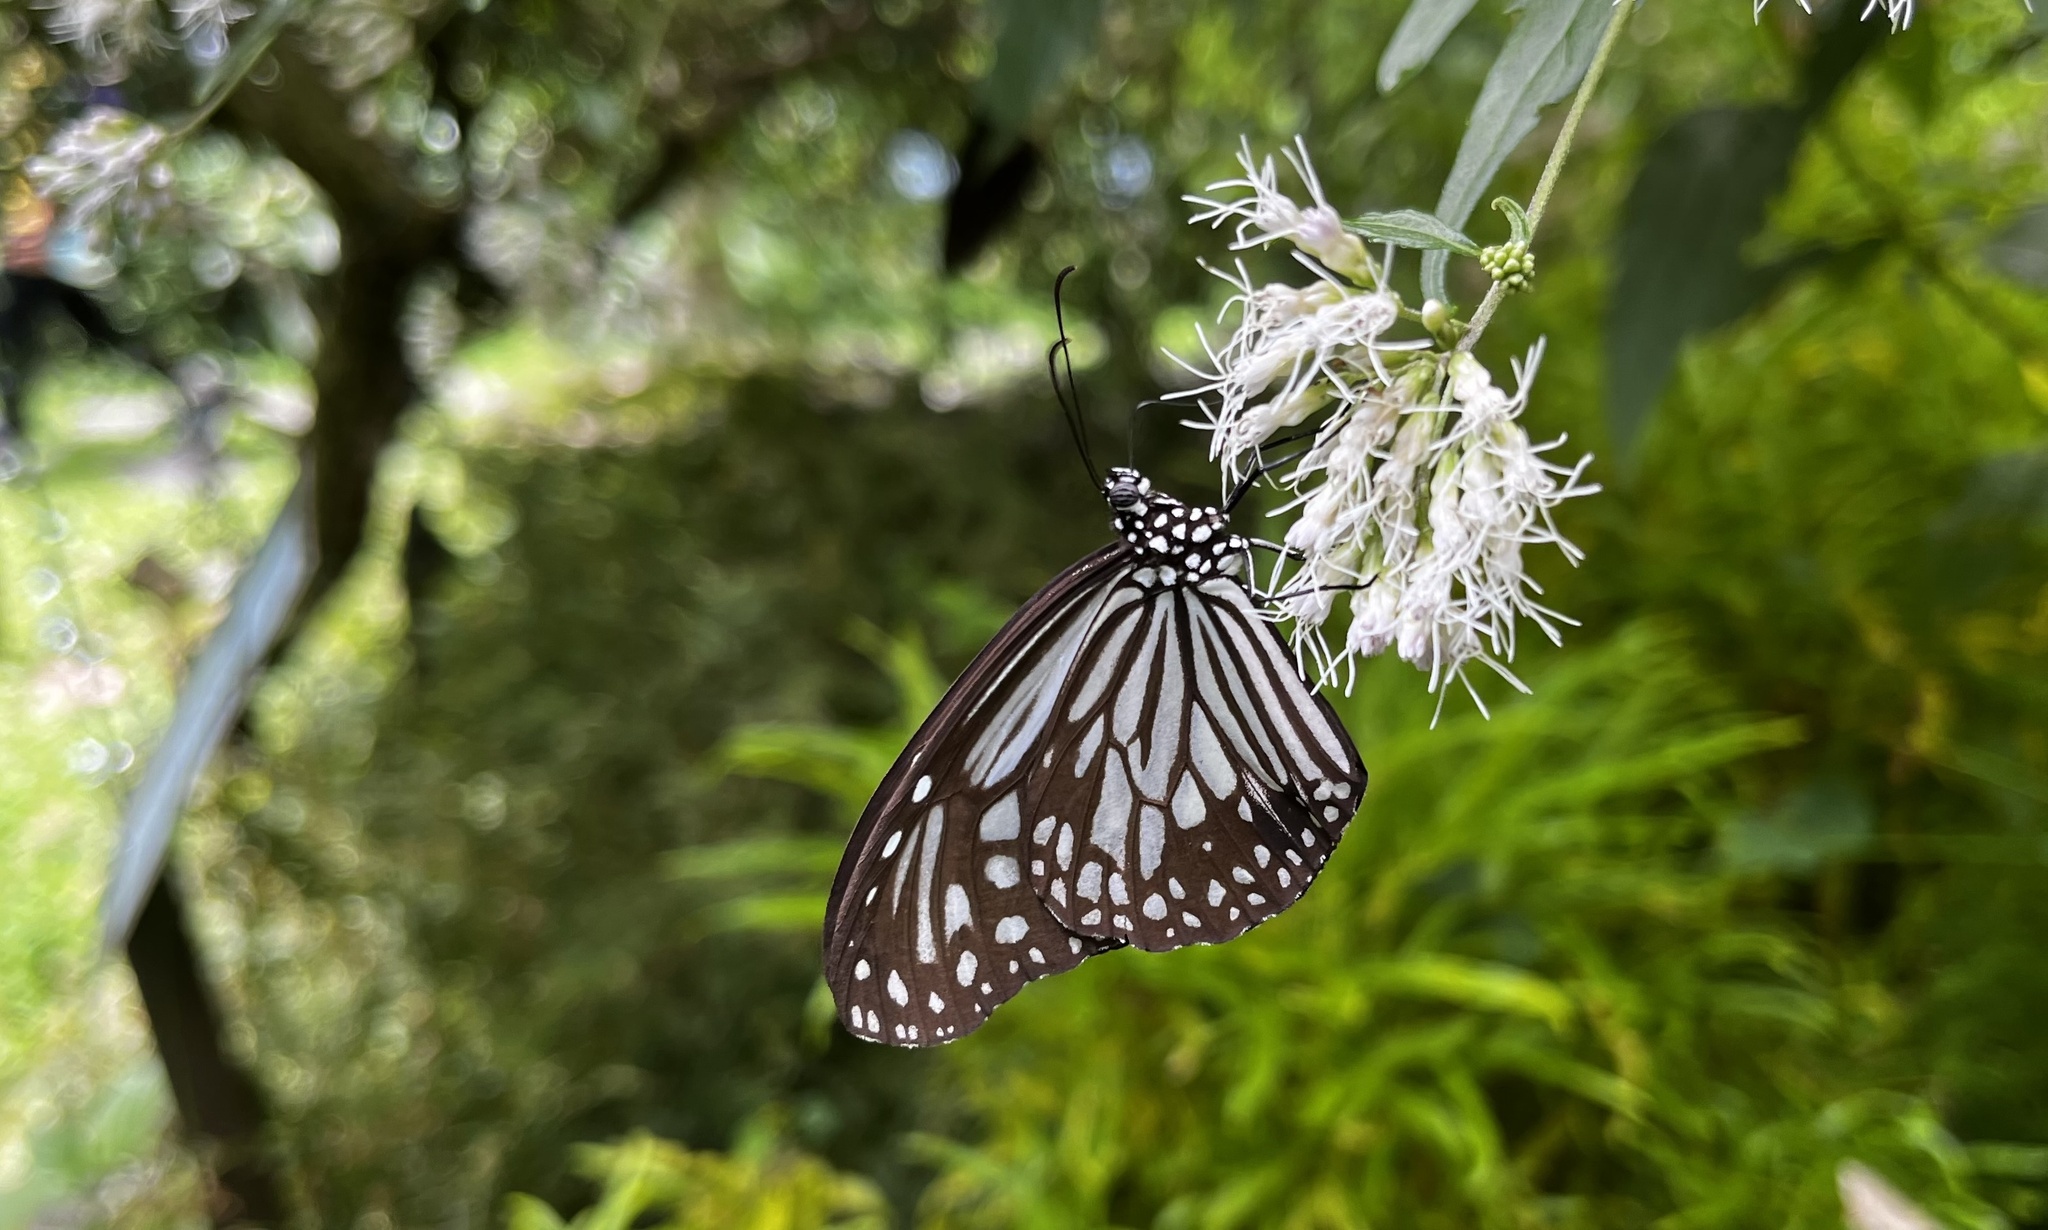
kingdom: Animalia
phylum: Arthropoda
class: Insecta
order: Lepidoptera
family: Nymphalidae
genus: Parantica
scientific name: Parantica aglea
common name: Glassy tiger
